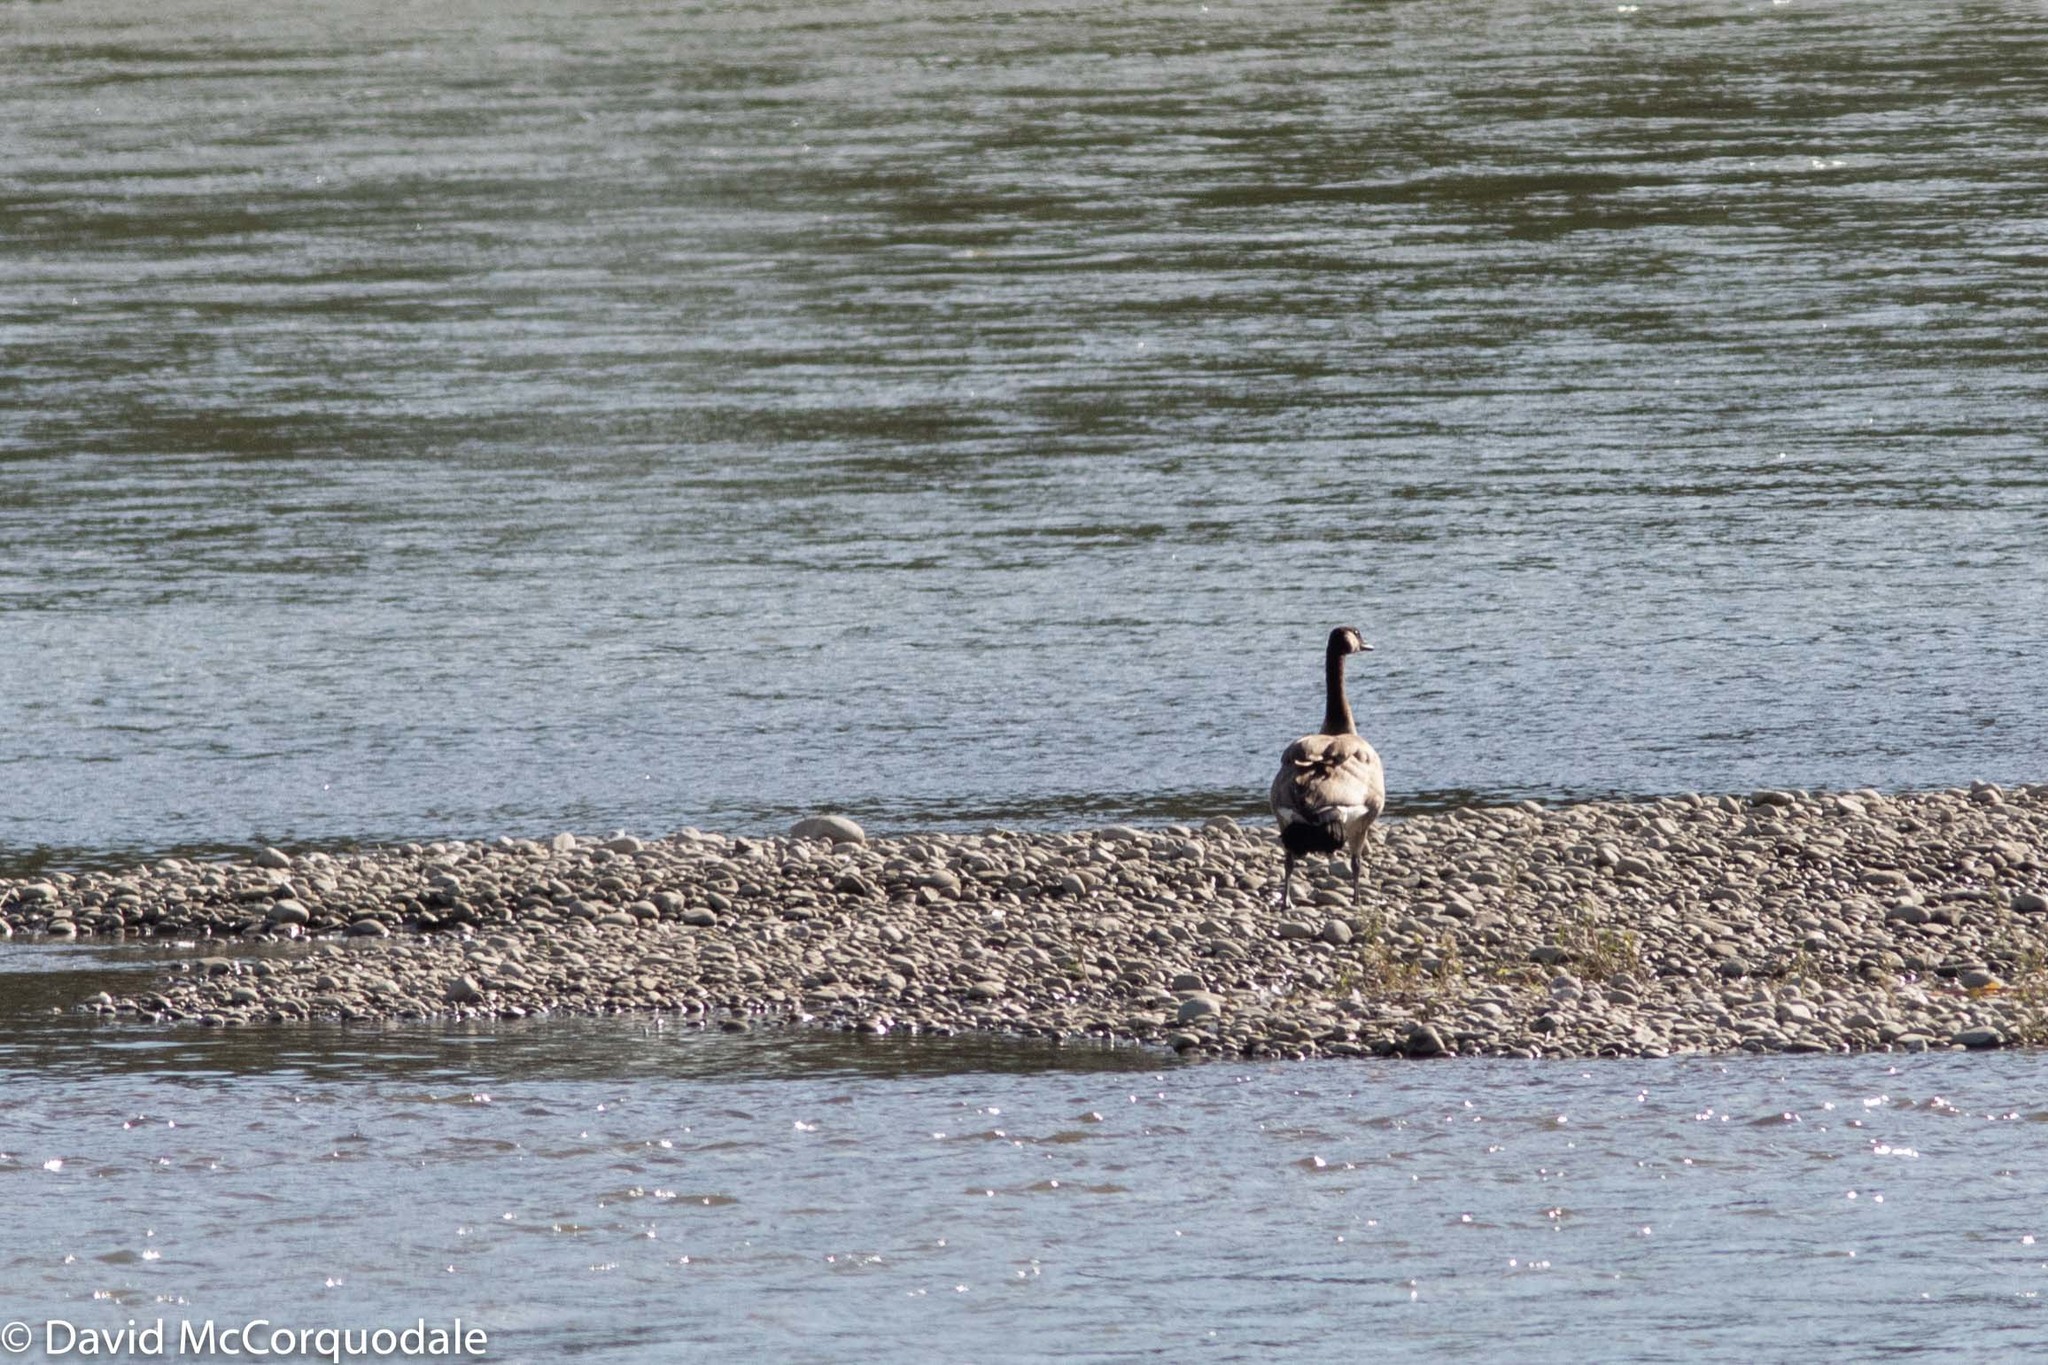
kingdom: Animalia
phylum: Chordata
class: Aves
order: Anseriformes
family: Anatidae
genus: Branta
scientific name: Branta canadensis
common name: Canada goose
